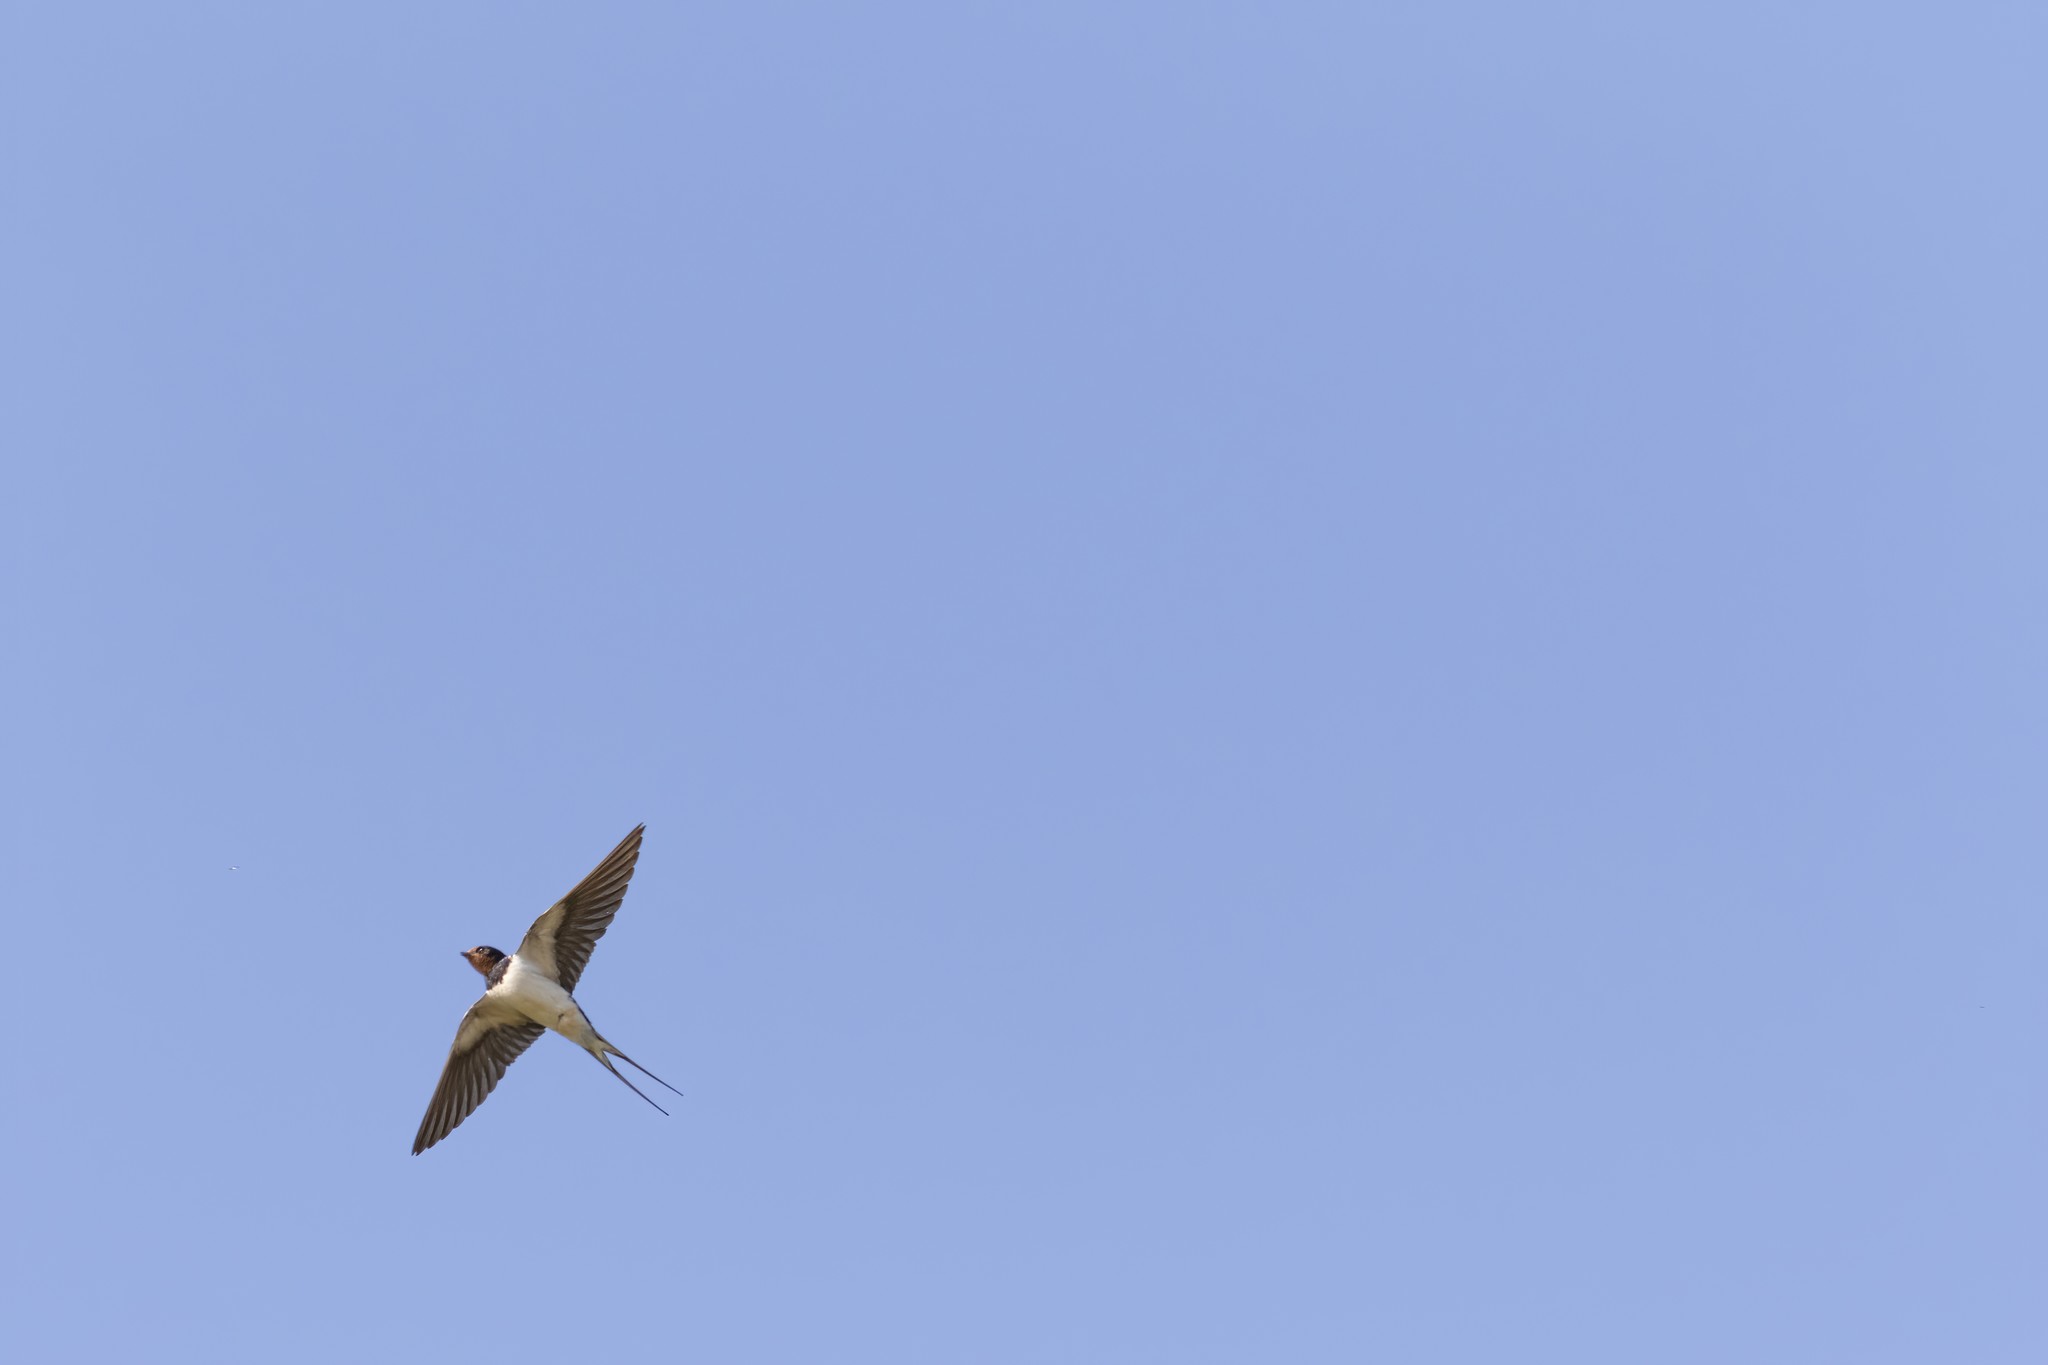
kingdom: Animalia
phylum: Chordata
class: Aves
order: Passeriformes
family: Hirundinidae
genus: Hirundo
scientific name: Hirundo rustica
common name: Barn swallow
